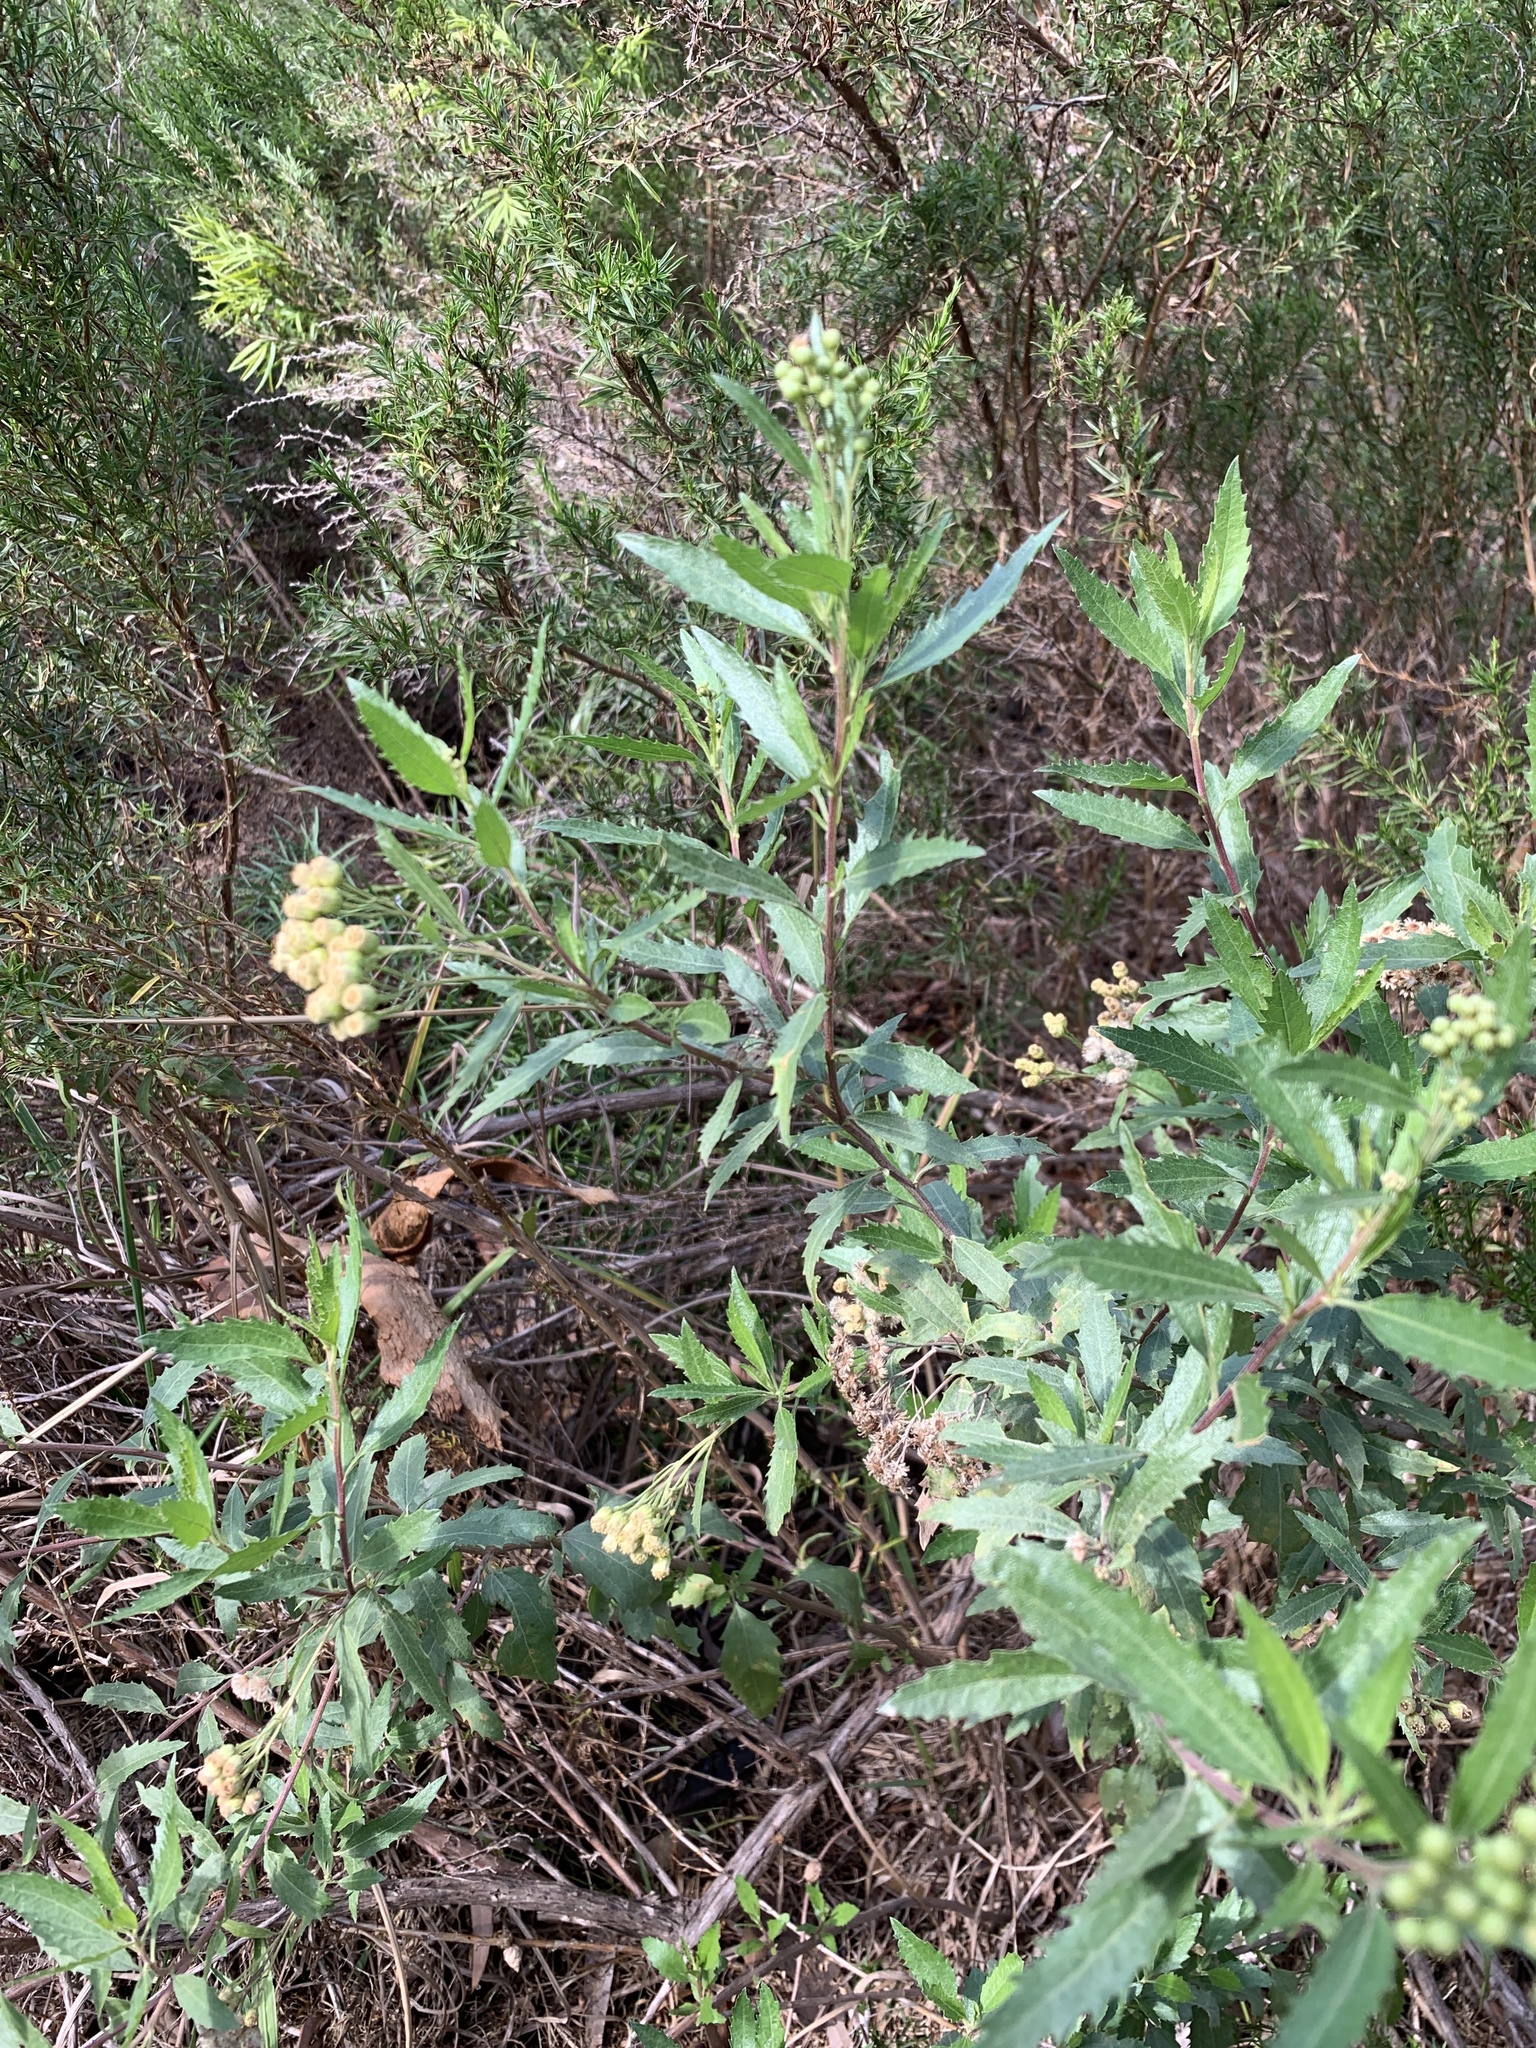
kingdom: Plantae
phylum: Tracheophyta
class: Magnoliopsida
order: Asterales
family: Asteraceae
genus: Nidorella
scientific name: Nidorella ivifolia
